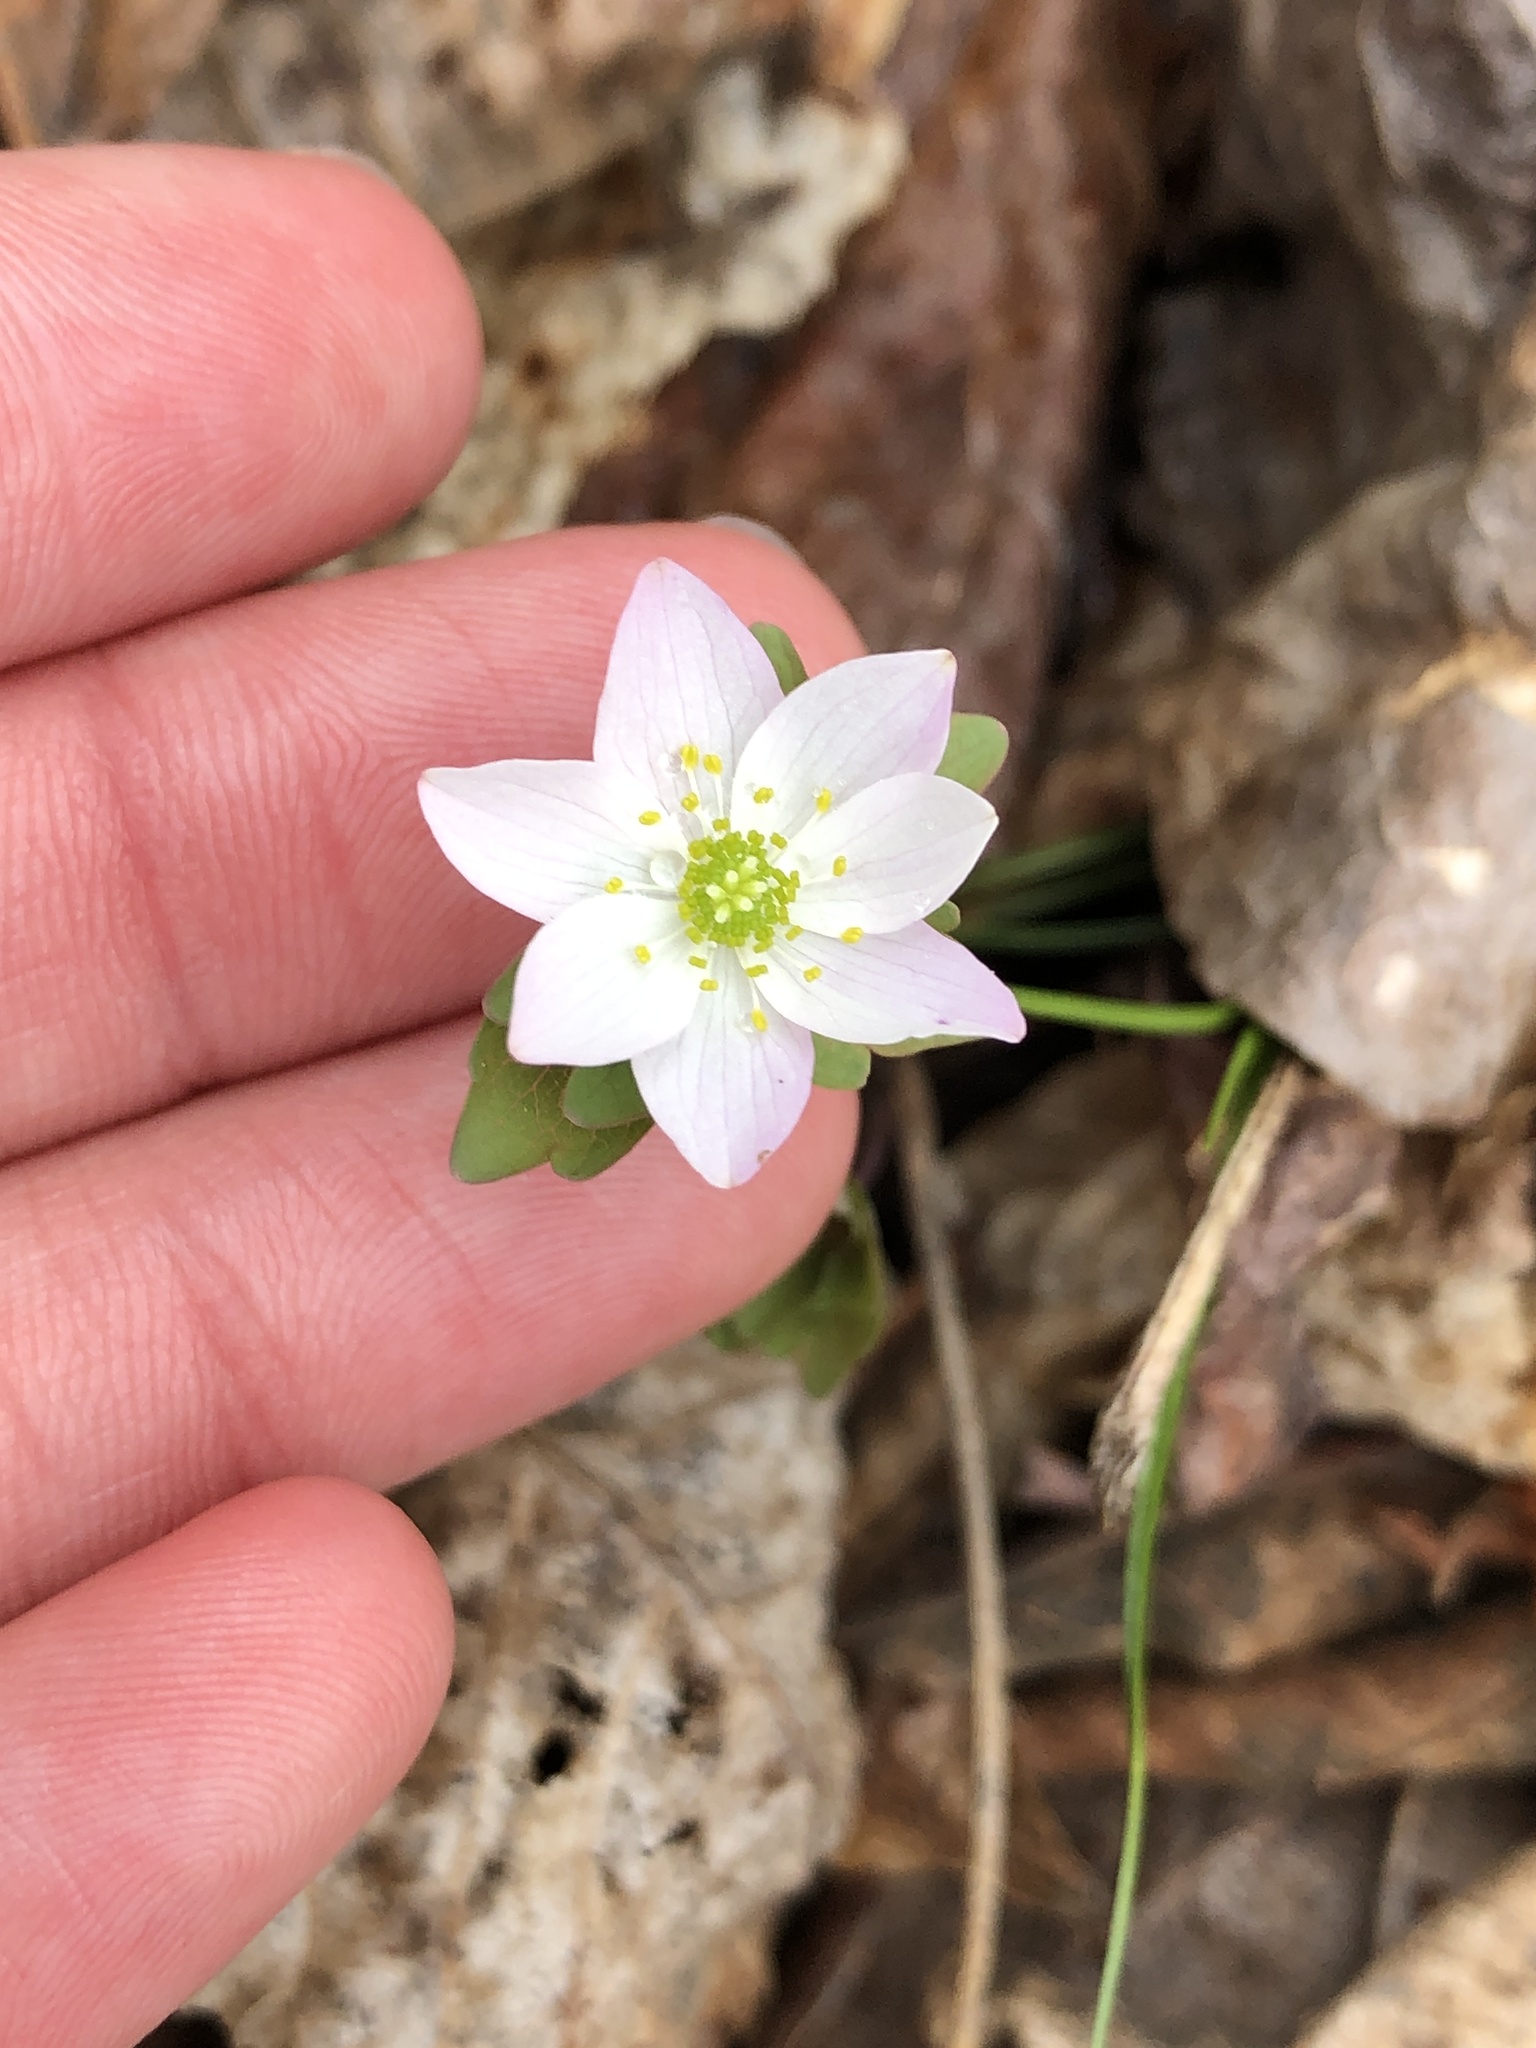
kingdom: Plantae
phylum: Tracheophyta
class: Magnoliopsida
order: Ranunculales
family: Ranunculaceae
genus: Thalictrum
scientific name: Thalictrum thalictroides
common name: Rue-anemone
